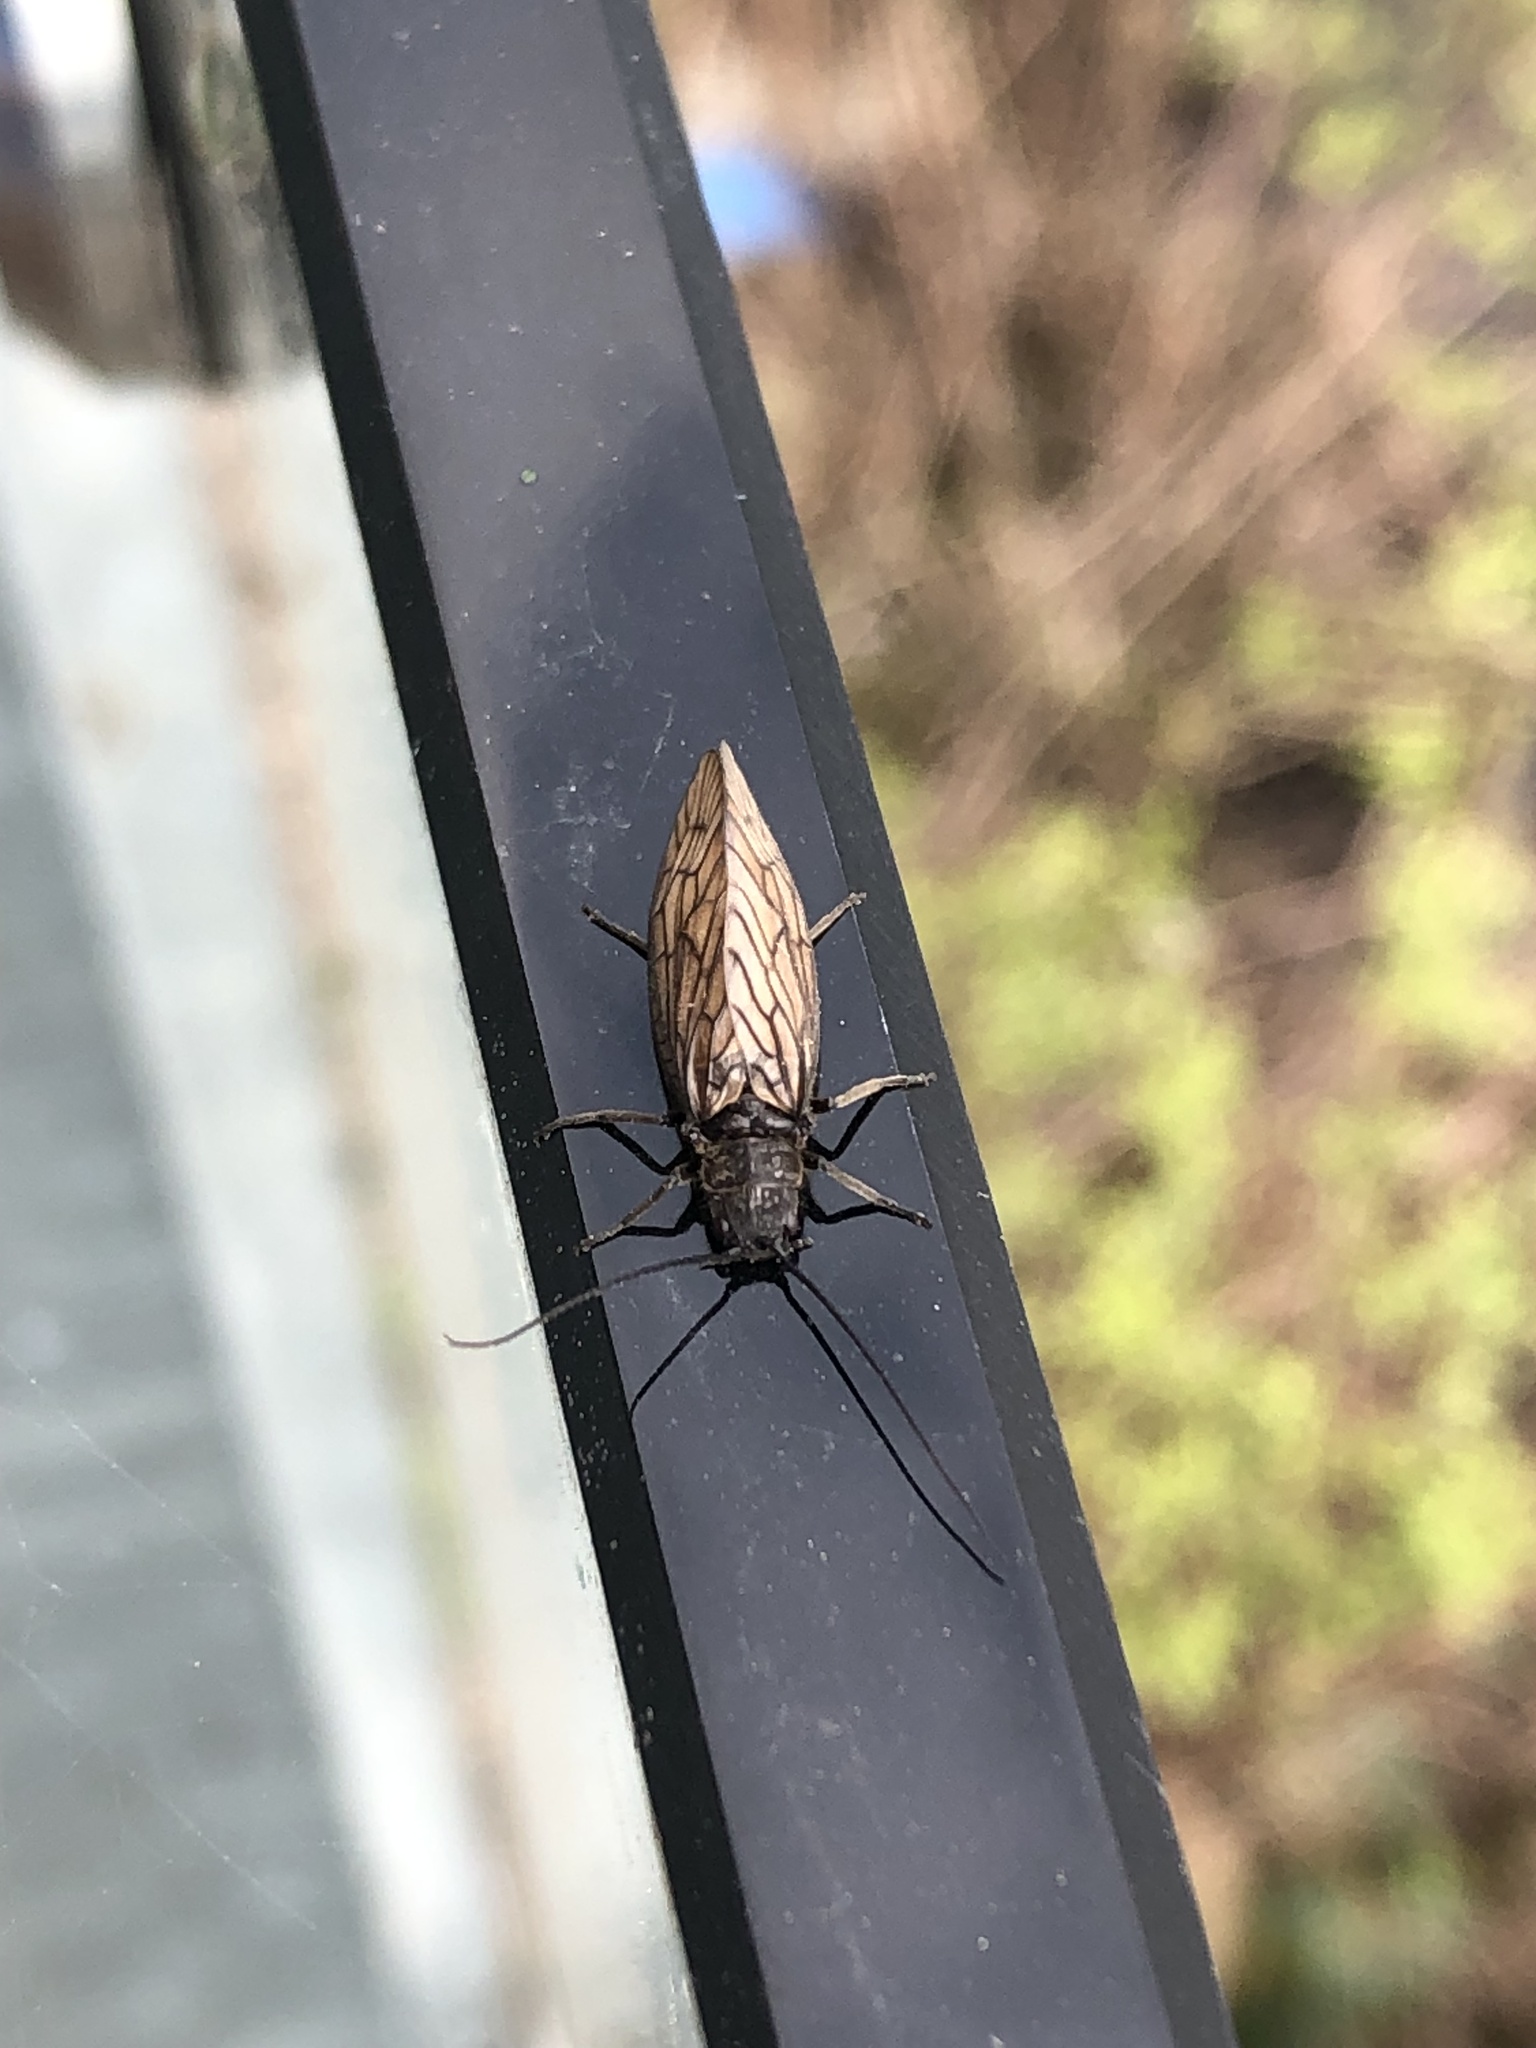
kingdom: Animalia
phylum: Arthropoda
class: Insecta
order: Megaloptera
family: Sialidae
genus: Sialis
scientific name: Sialis
